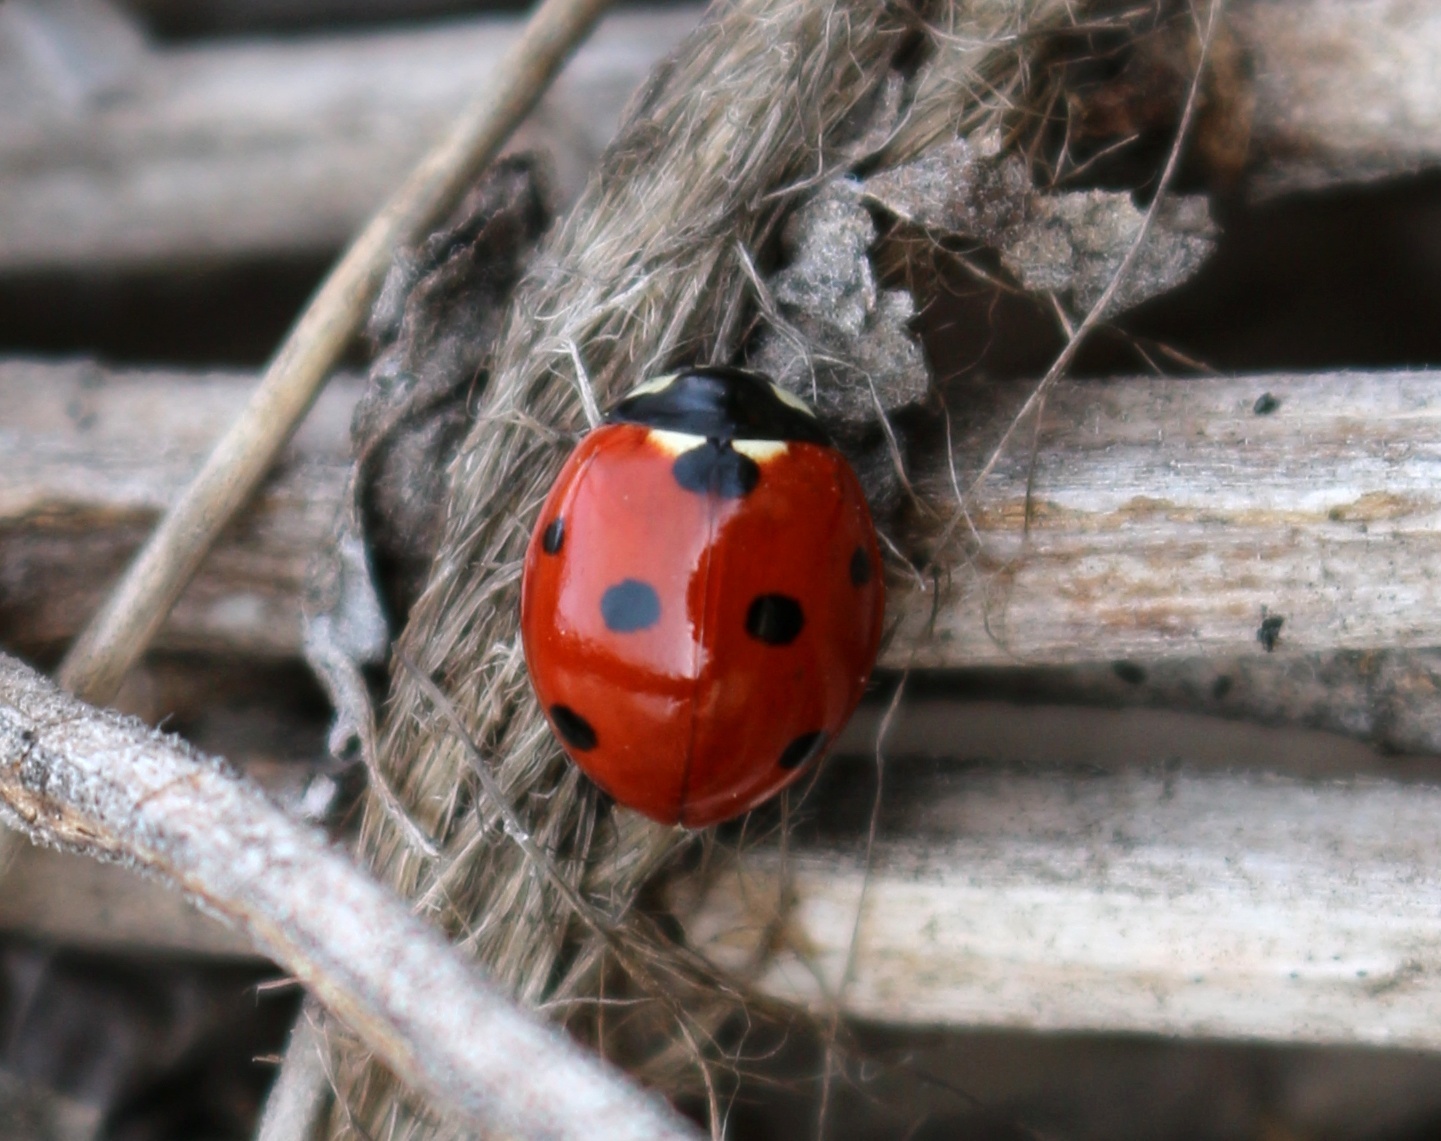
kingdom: Animalia
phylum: Arthropoda
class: Insecta
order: Coleoptera
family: Coccinellidae
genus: Coccinella
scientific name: Coccinella septempunctata
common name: Sevenspotted lady beetle
